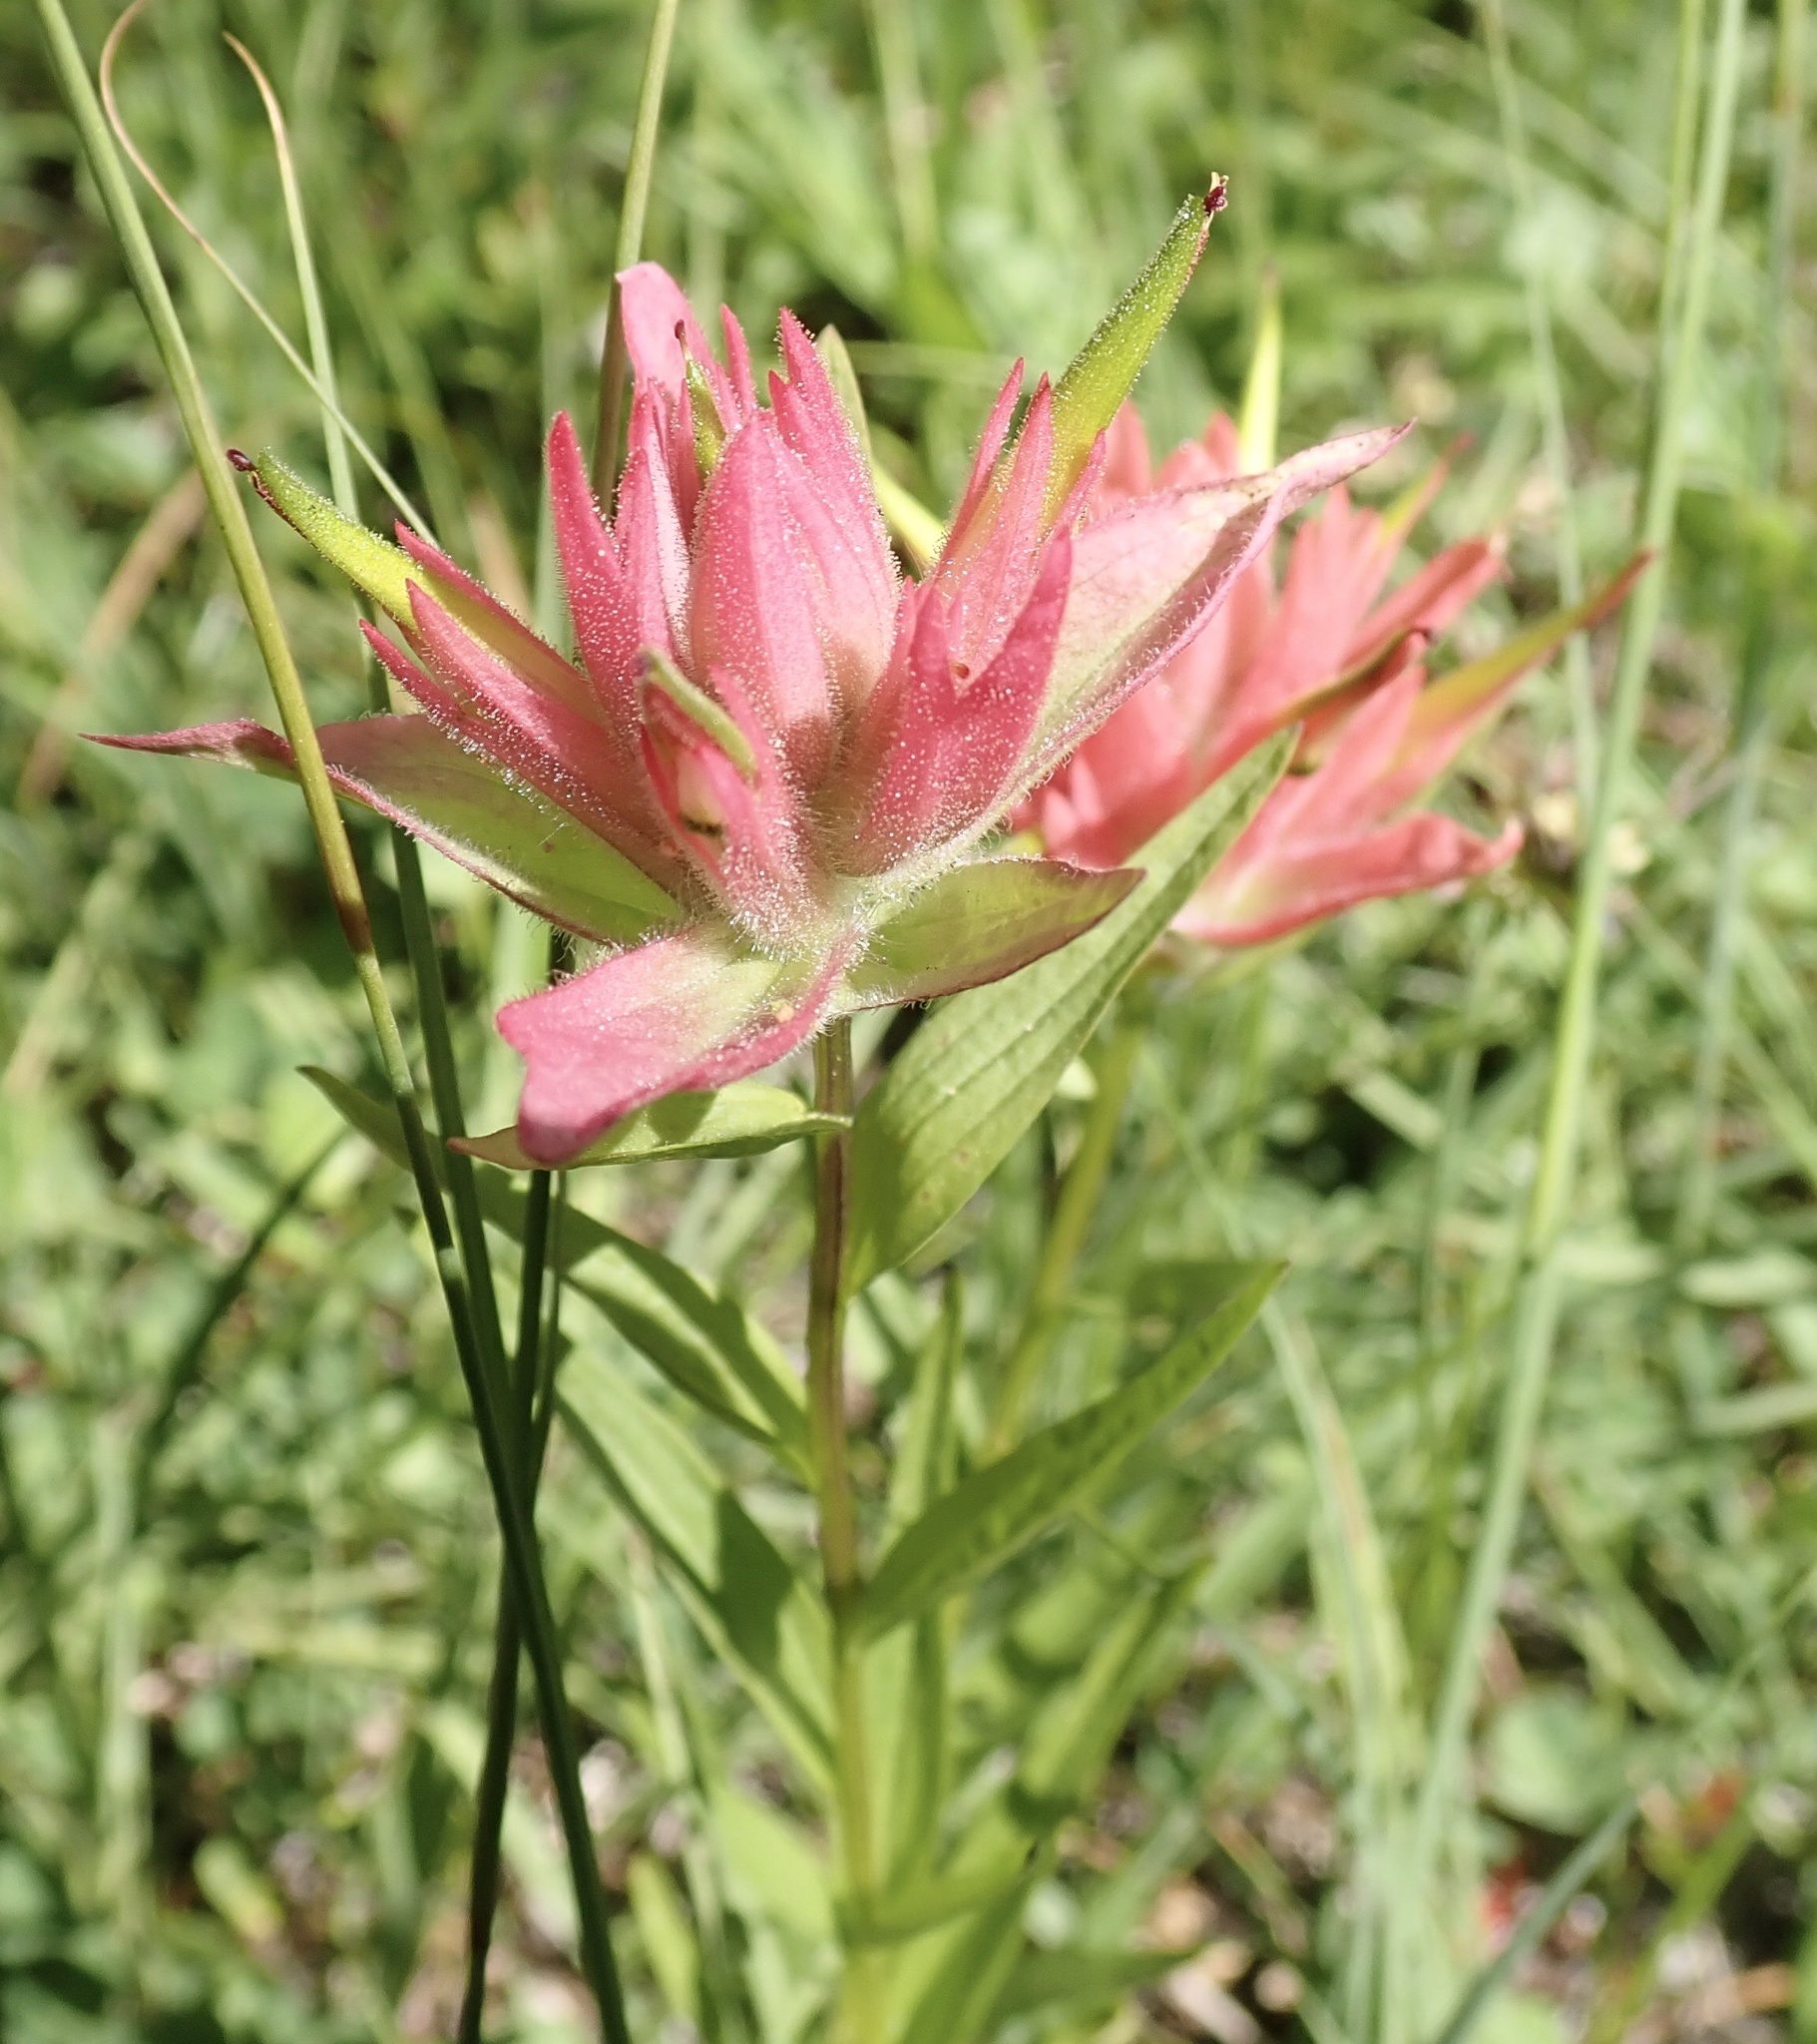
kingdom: Plantae
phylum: Tracheophyta
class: Magnoliopsida
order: Lamiales
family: Orobanchaceae
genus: Castilleja
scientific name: Castilleja miniata
